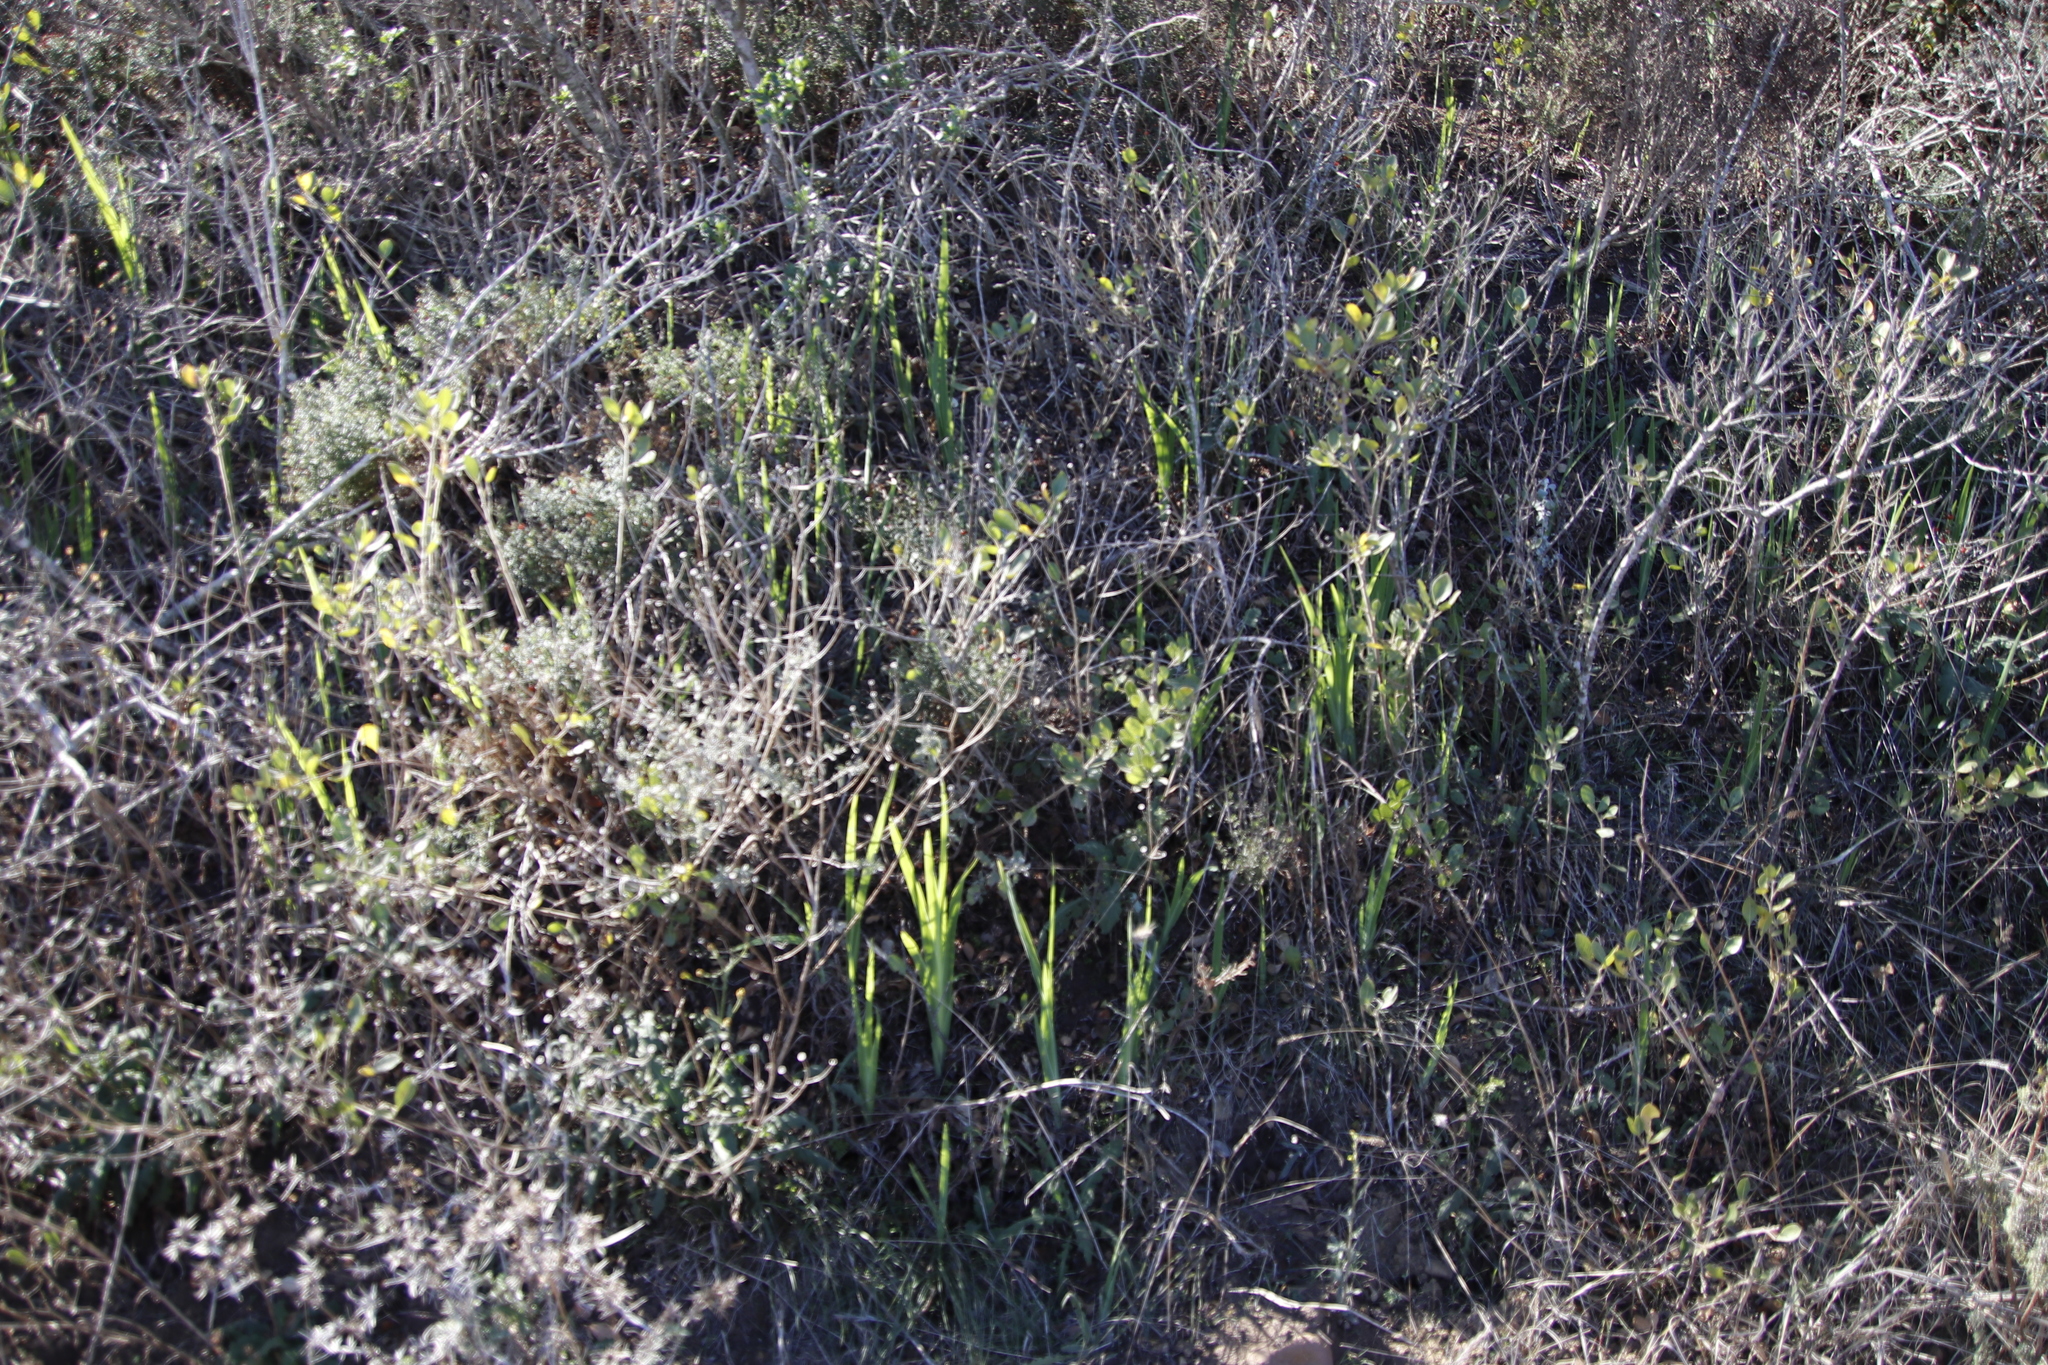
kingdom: Plantae
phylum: Tracheophyta
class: Liliopsida
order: Asparagales
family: Iridaceae
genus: Chasmanthe
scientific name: Chasmanthe aethiopica
